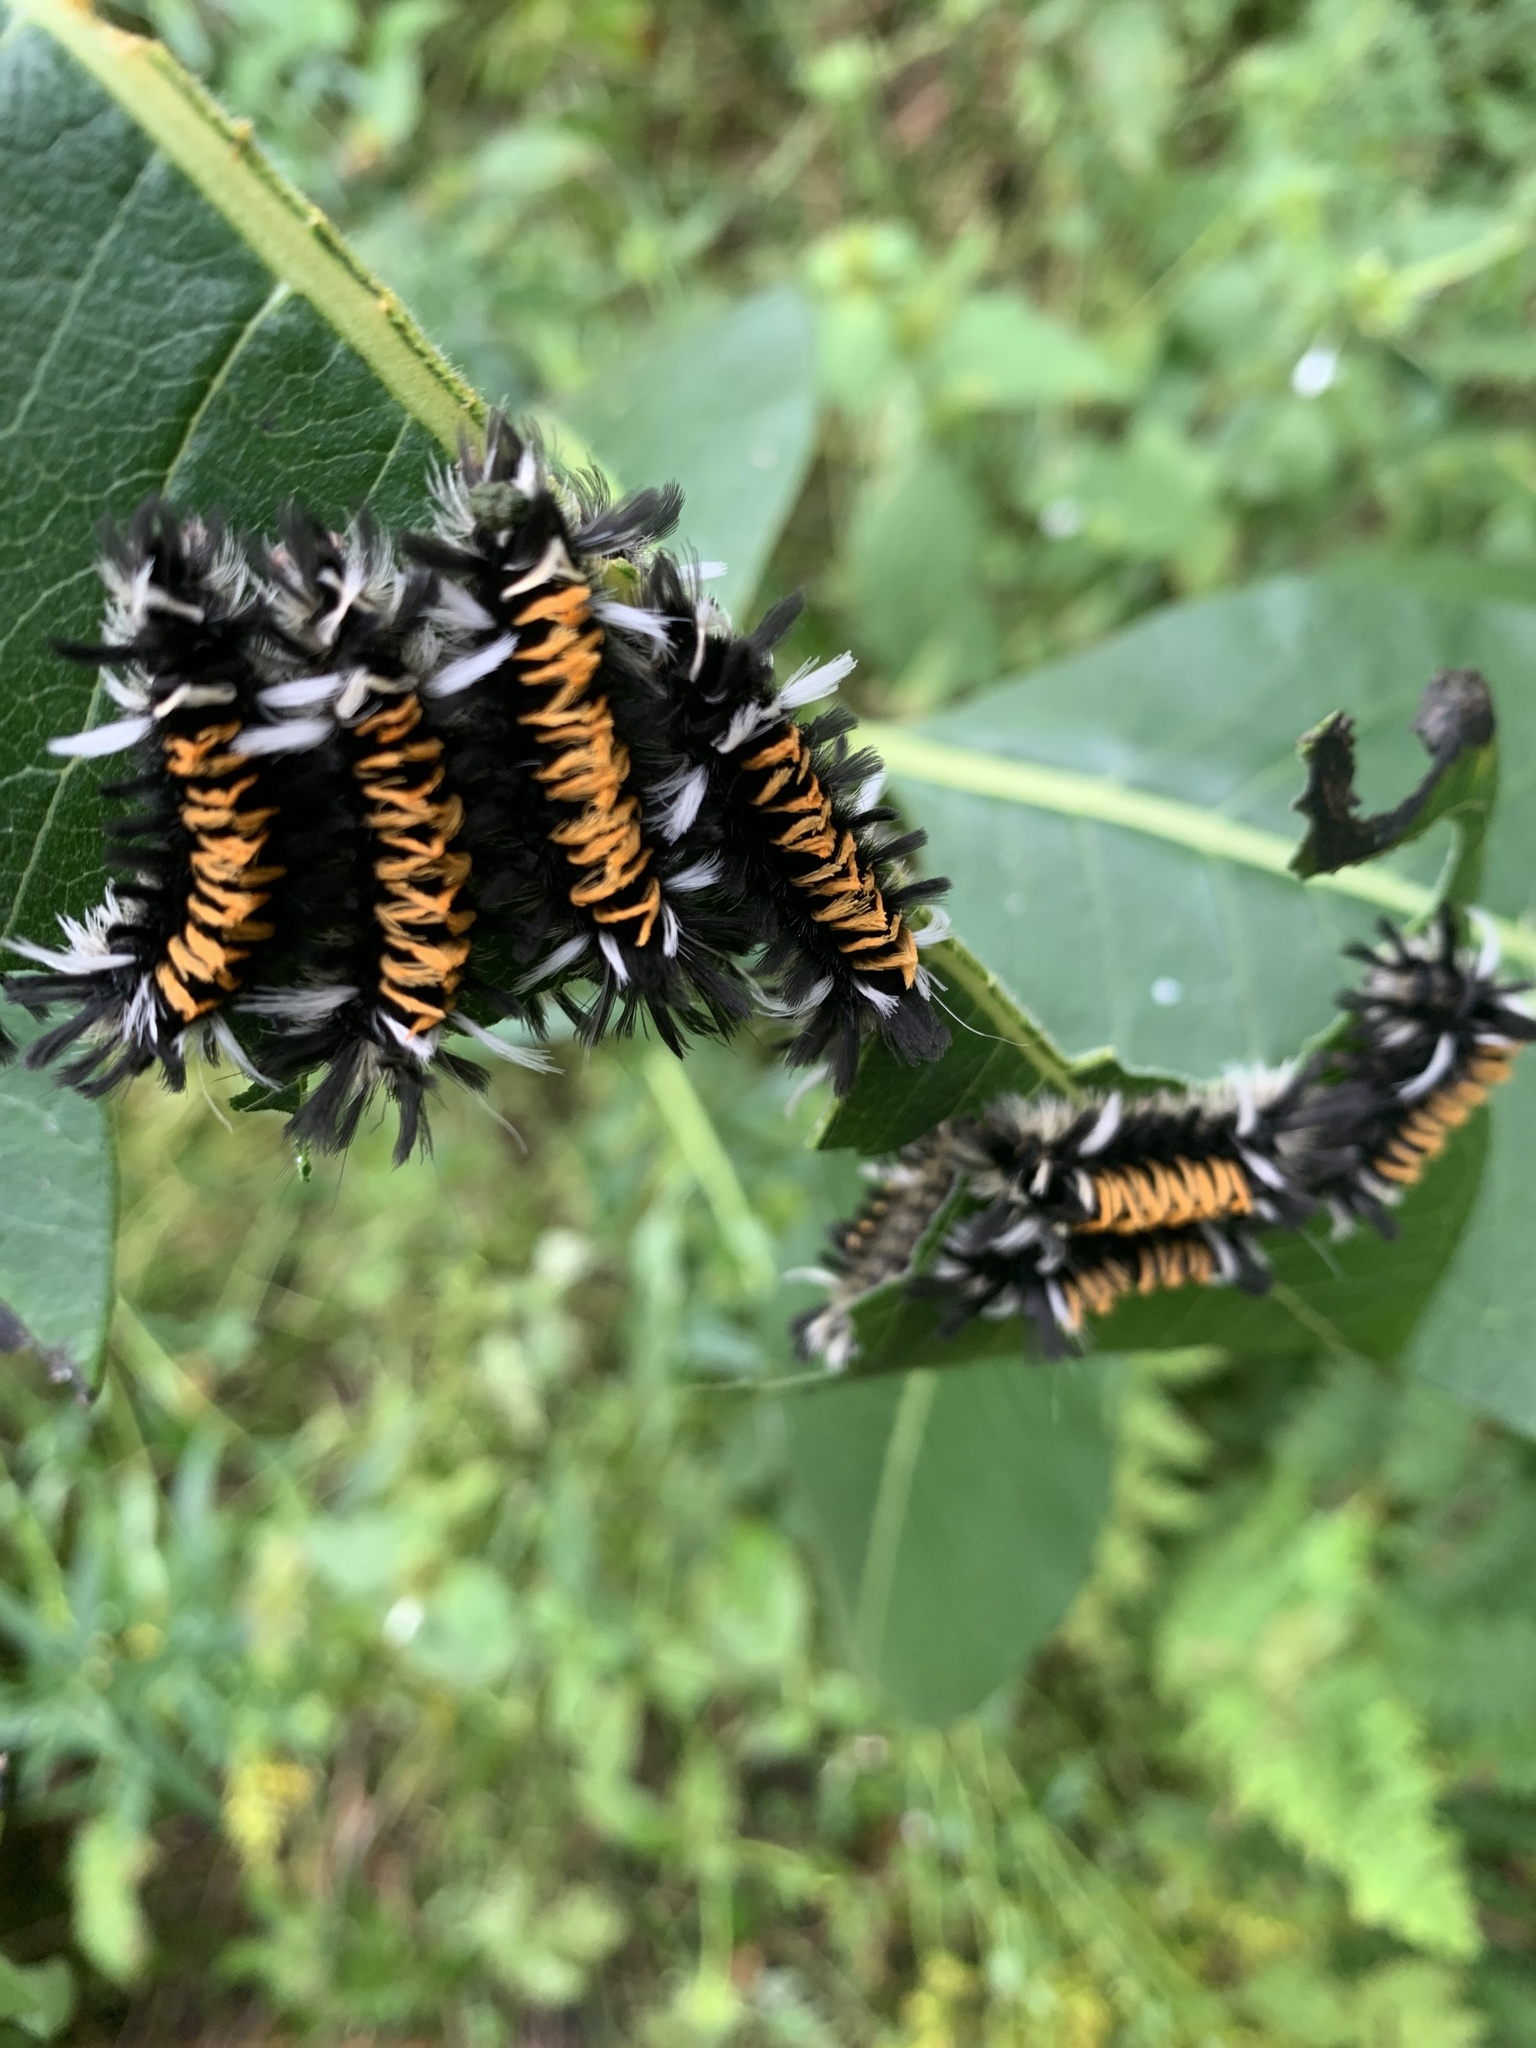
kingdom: Animalia
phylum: Arthropoda
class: Insecta
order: Lepidoptera
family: Erebidae
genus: Euchaetes
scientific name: Euchaetes egle
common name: Milkweed tussock moth
